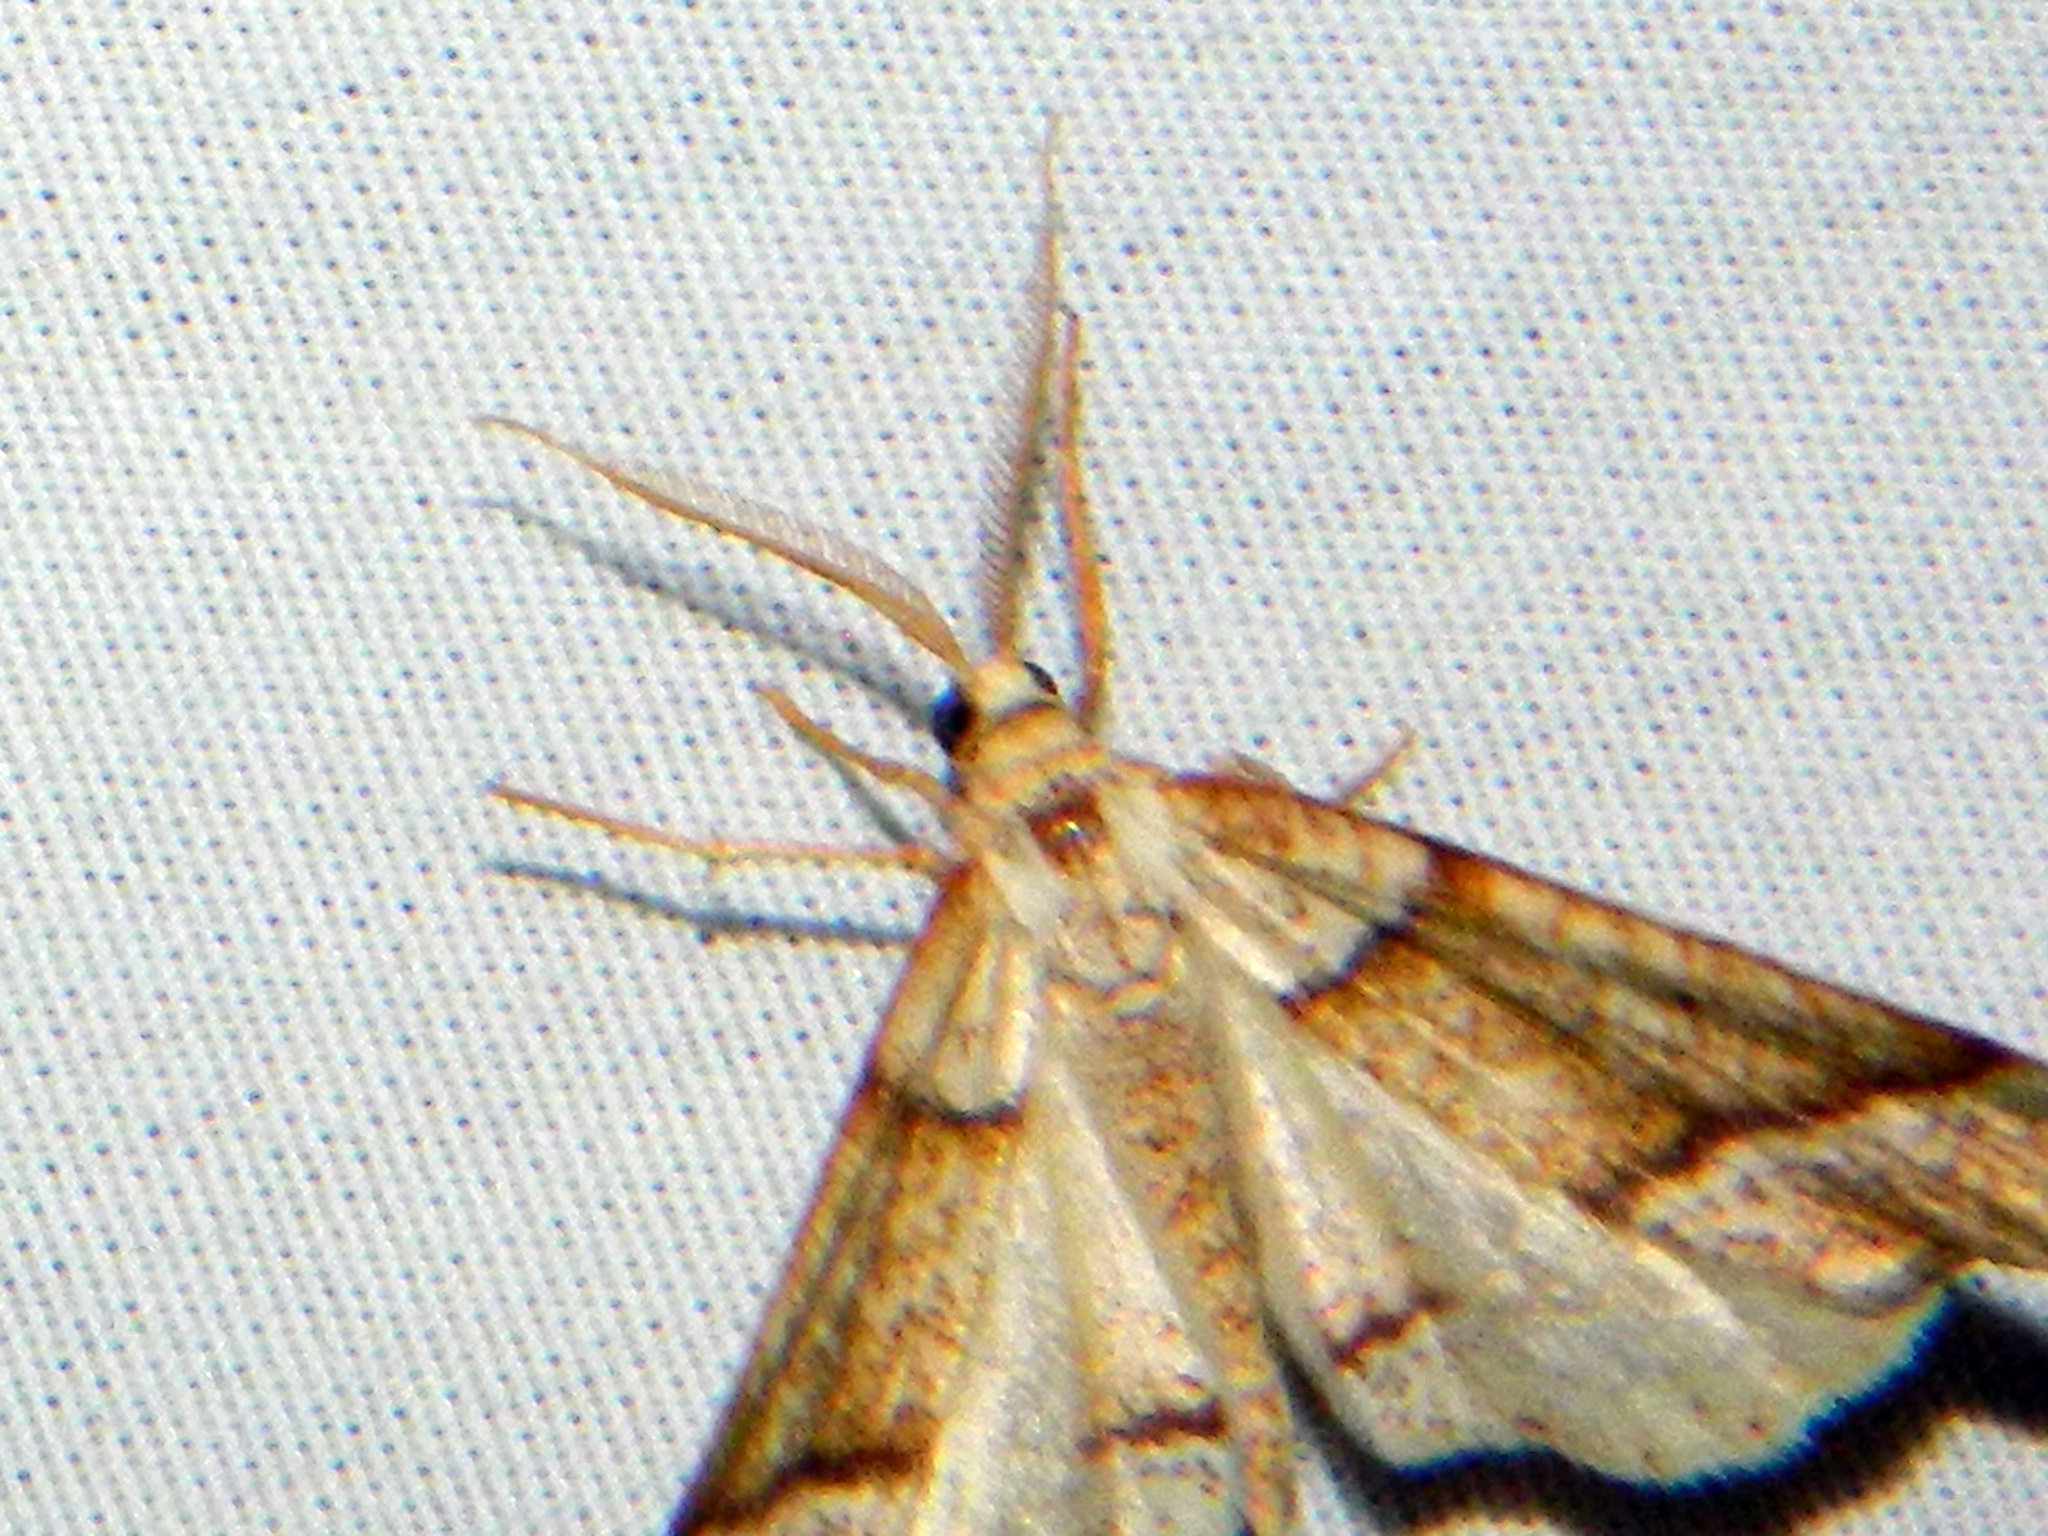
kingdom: Animalia
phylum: Arthropoda
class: Insecta
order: Lepidoptera
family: Geometridae
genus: Plagodis
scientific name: Plagodis alcoolaria
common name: Hollow-spotted plagodis
